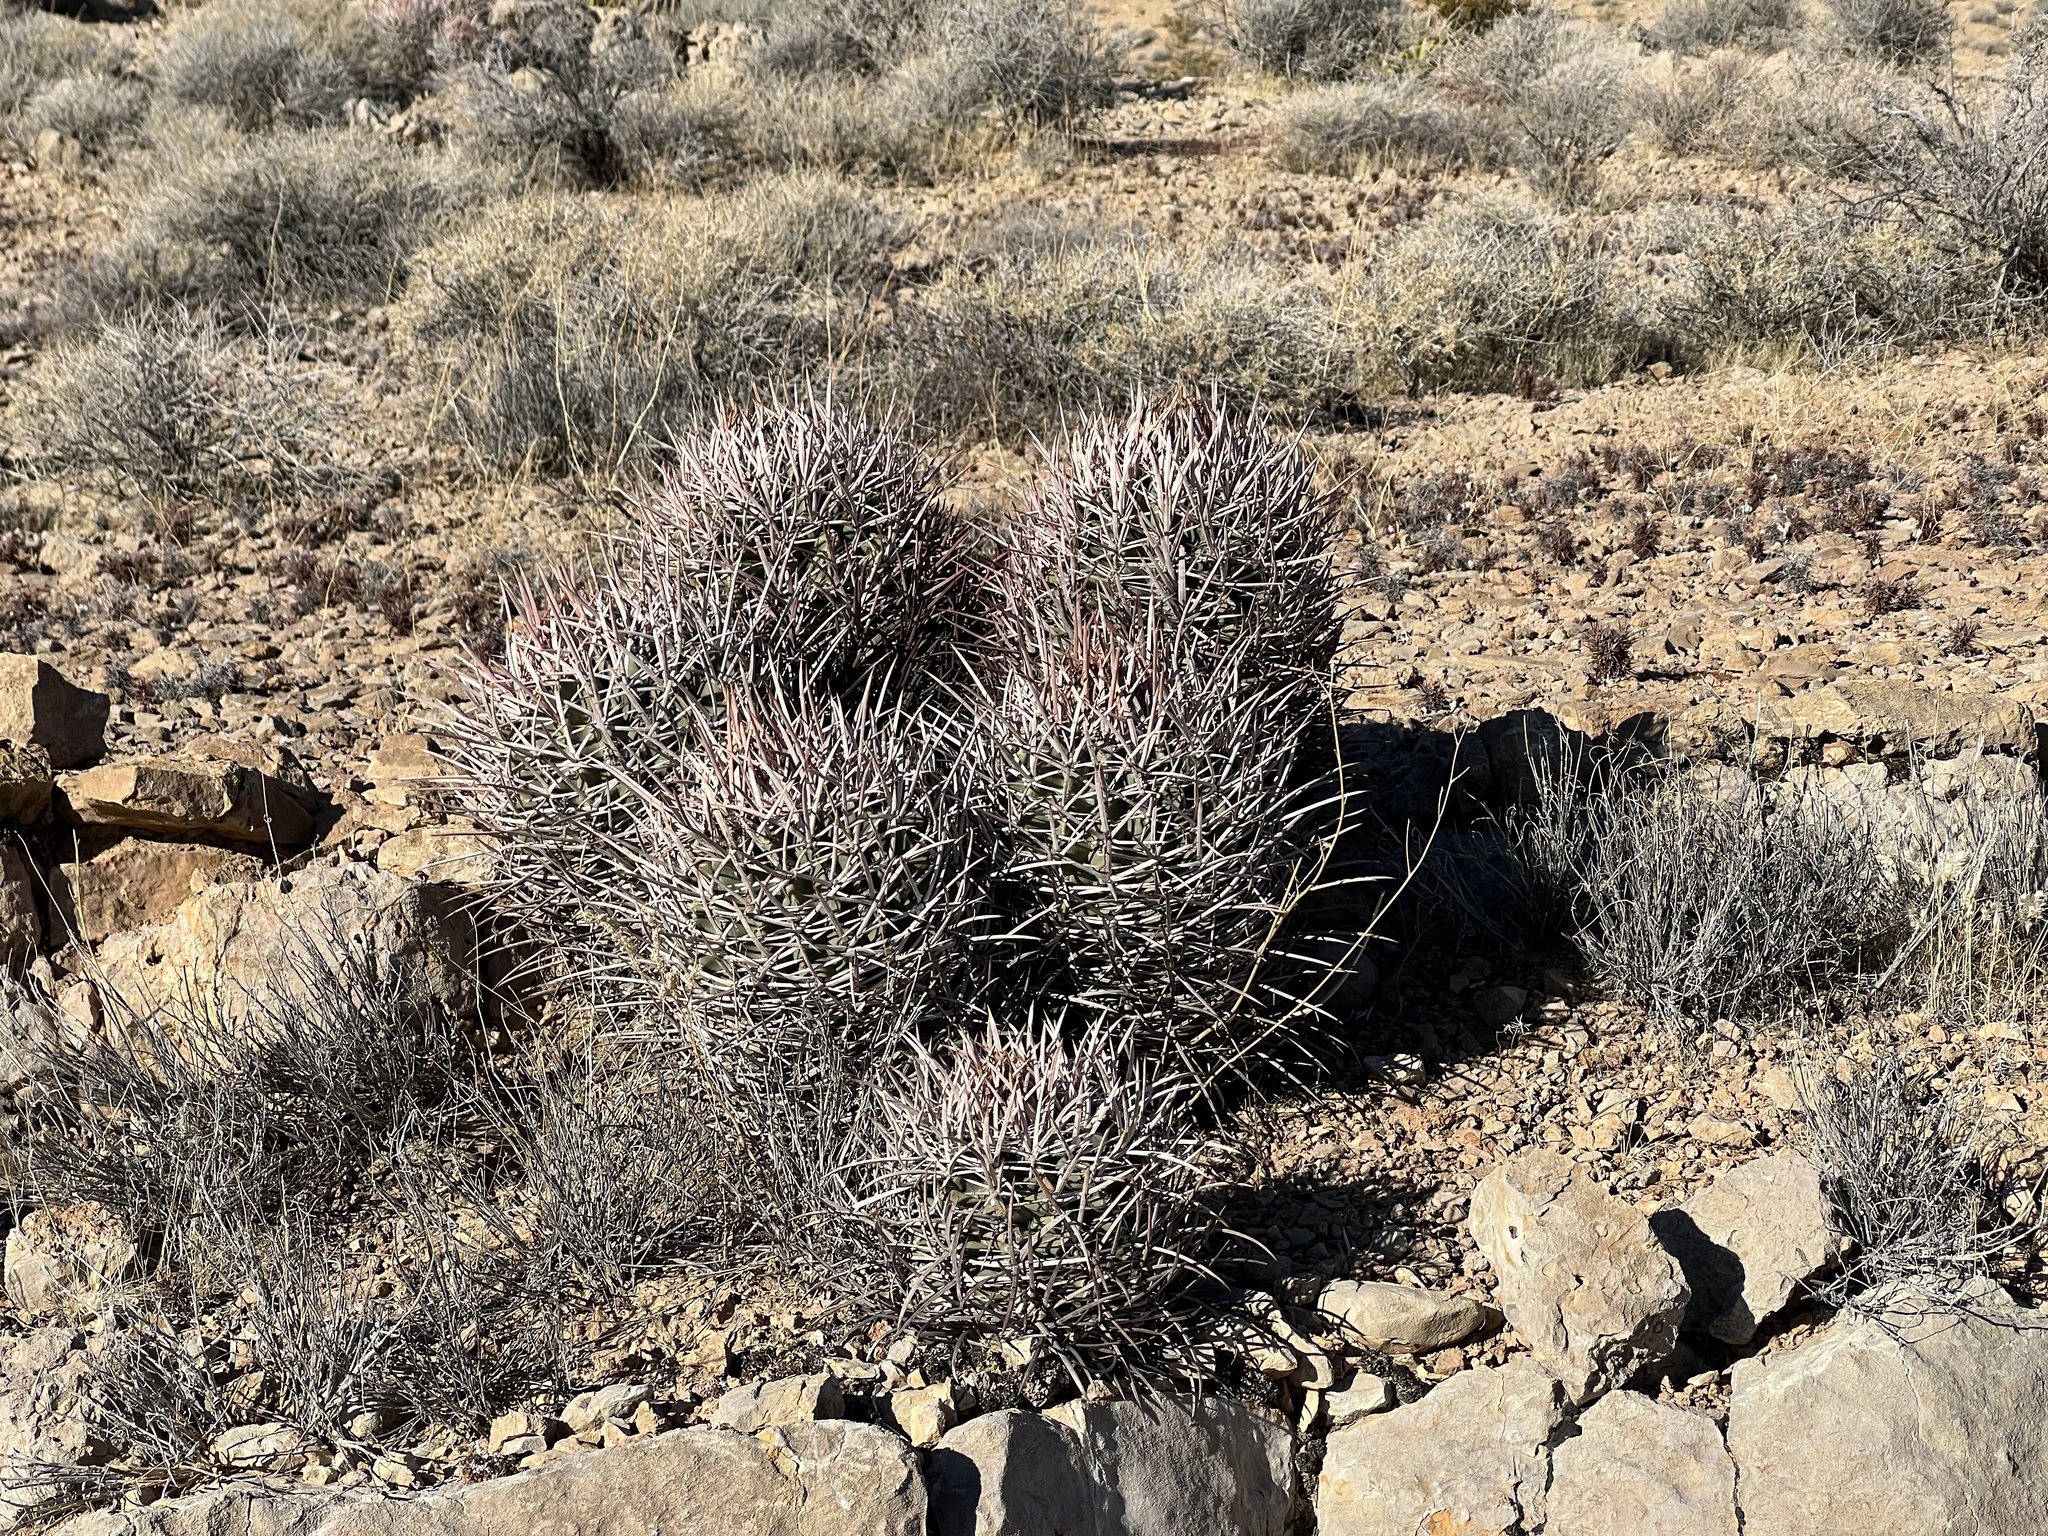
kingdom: Plantae
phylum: Tracheophyta
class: Magnoliopsida
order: Caryophyllales
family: Cactaceae
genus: Echinocactus
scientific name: Echinocactus polycephalus
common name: Cottontop cactus
